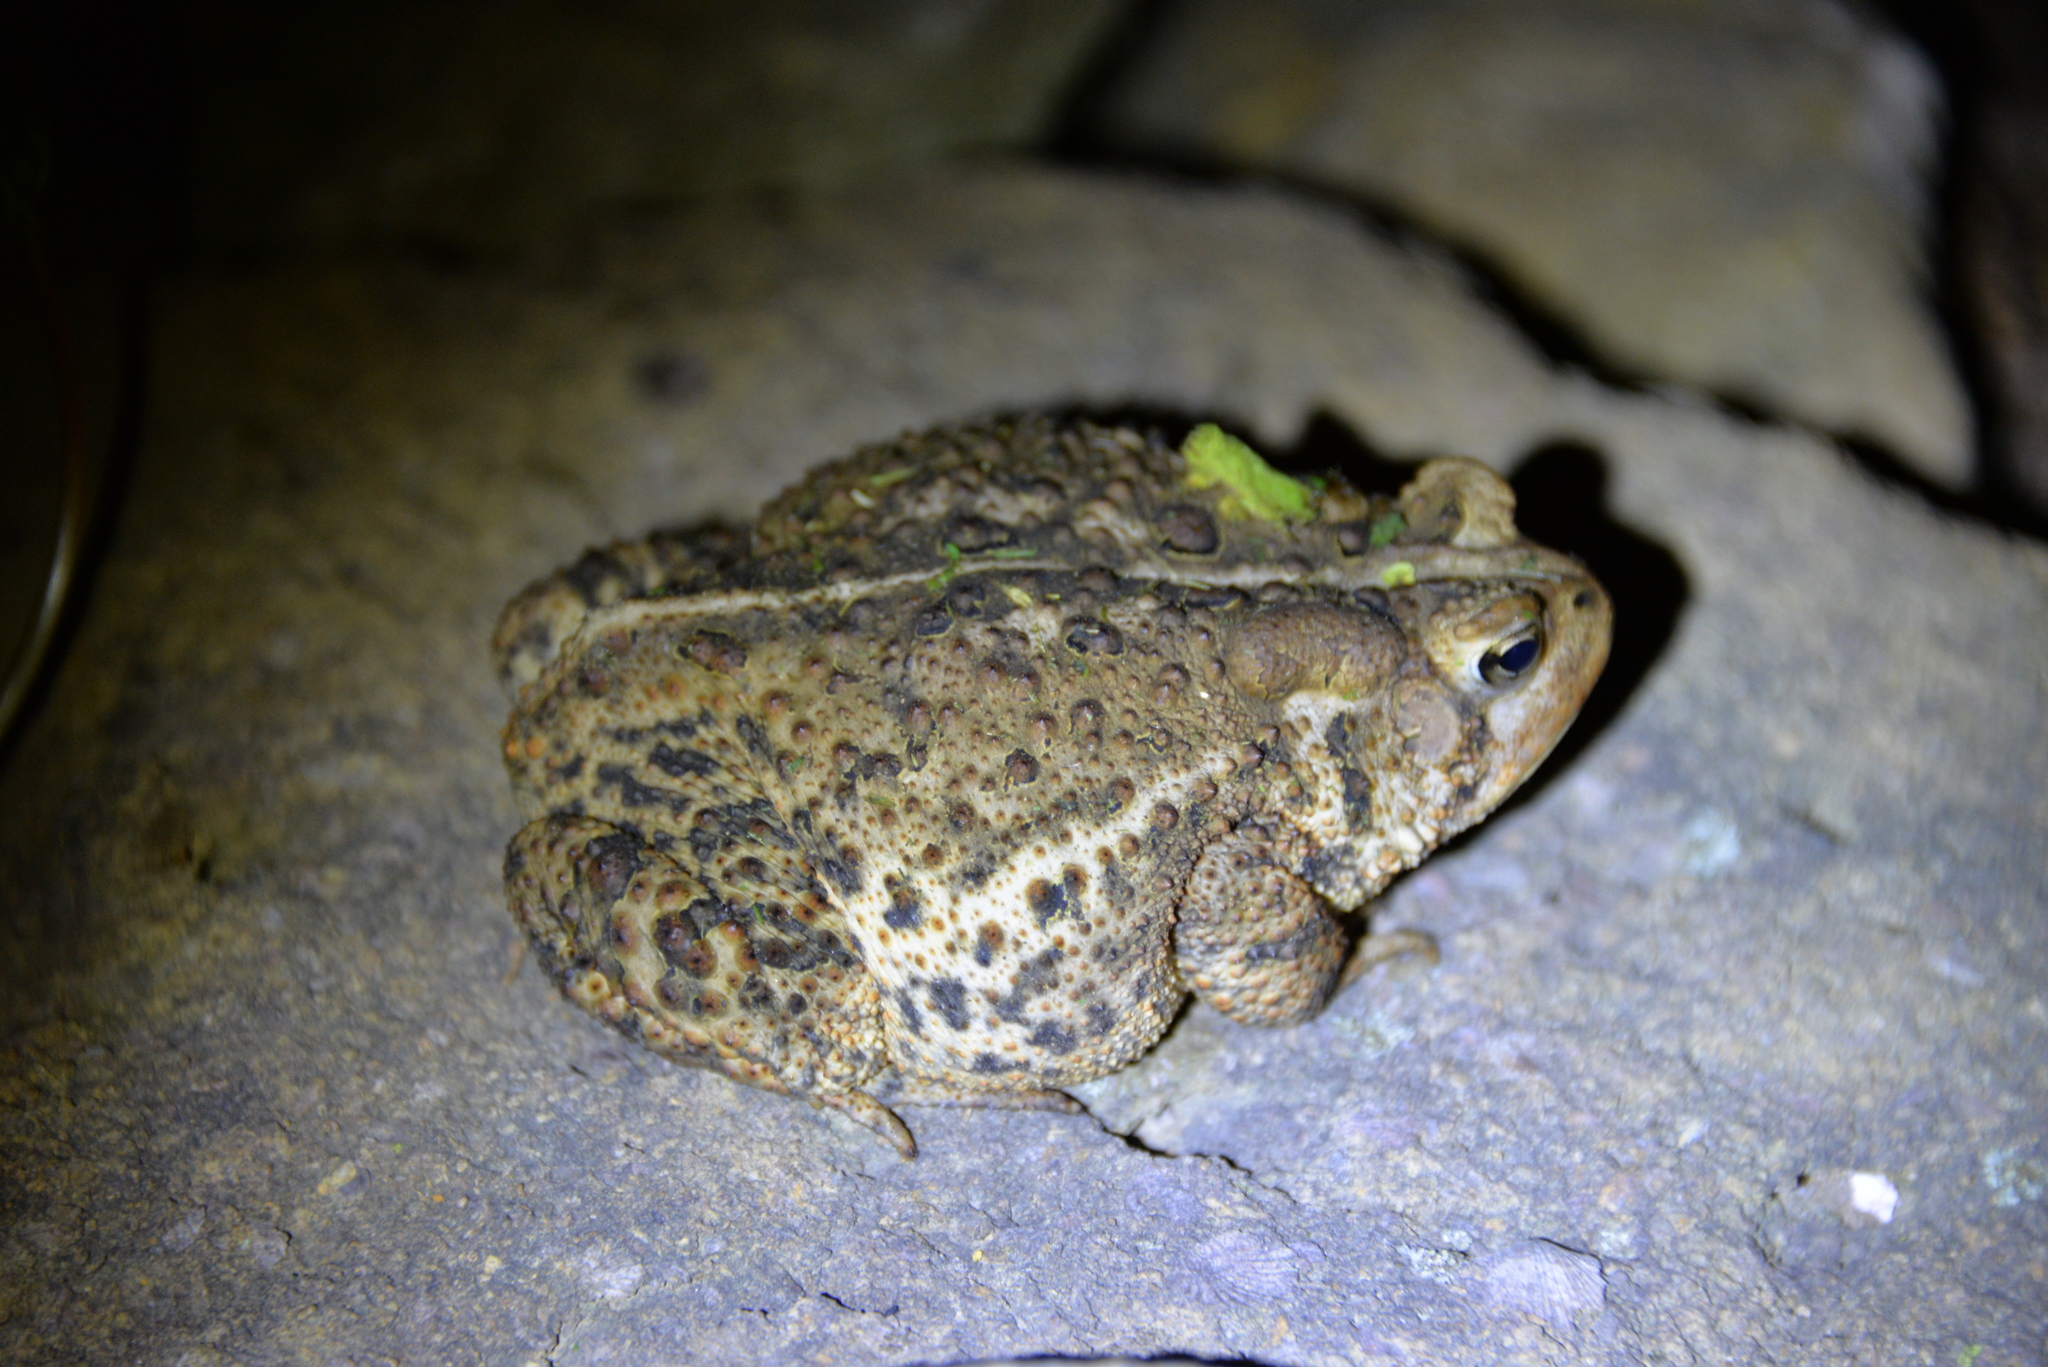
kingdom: Animalia
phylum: Chordata
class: Amphibia
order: Anura
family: Bufonidae
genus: Anaxyrus
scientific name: Anaxyrus americanus
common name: American toad
